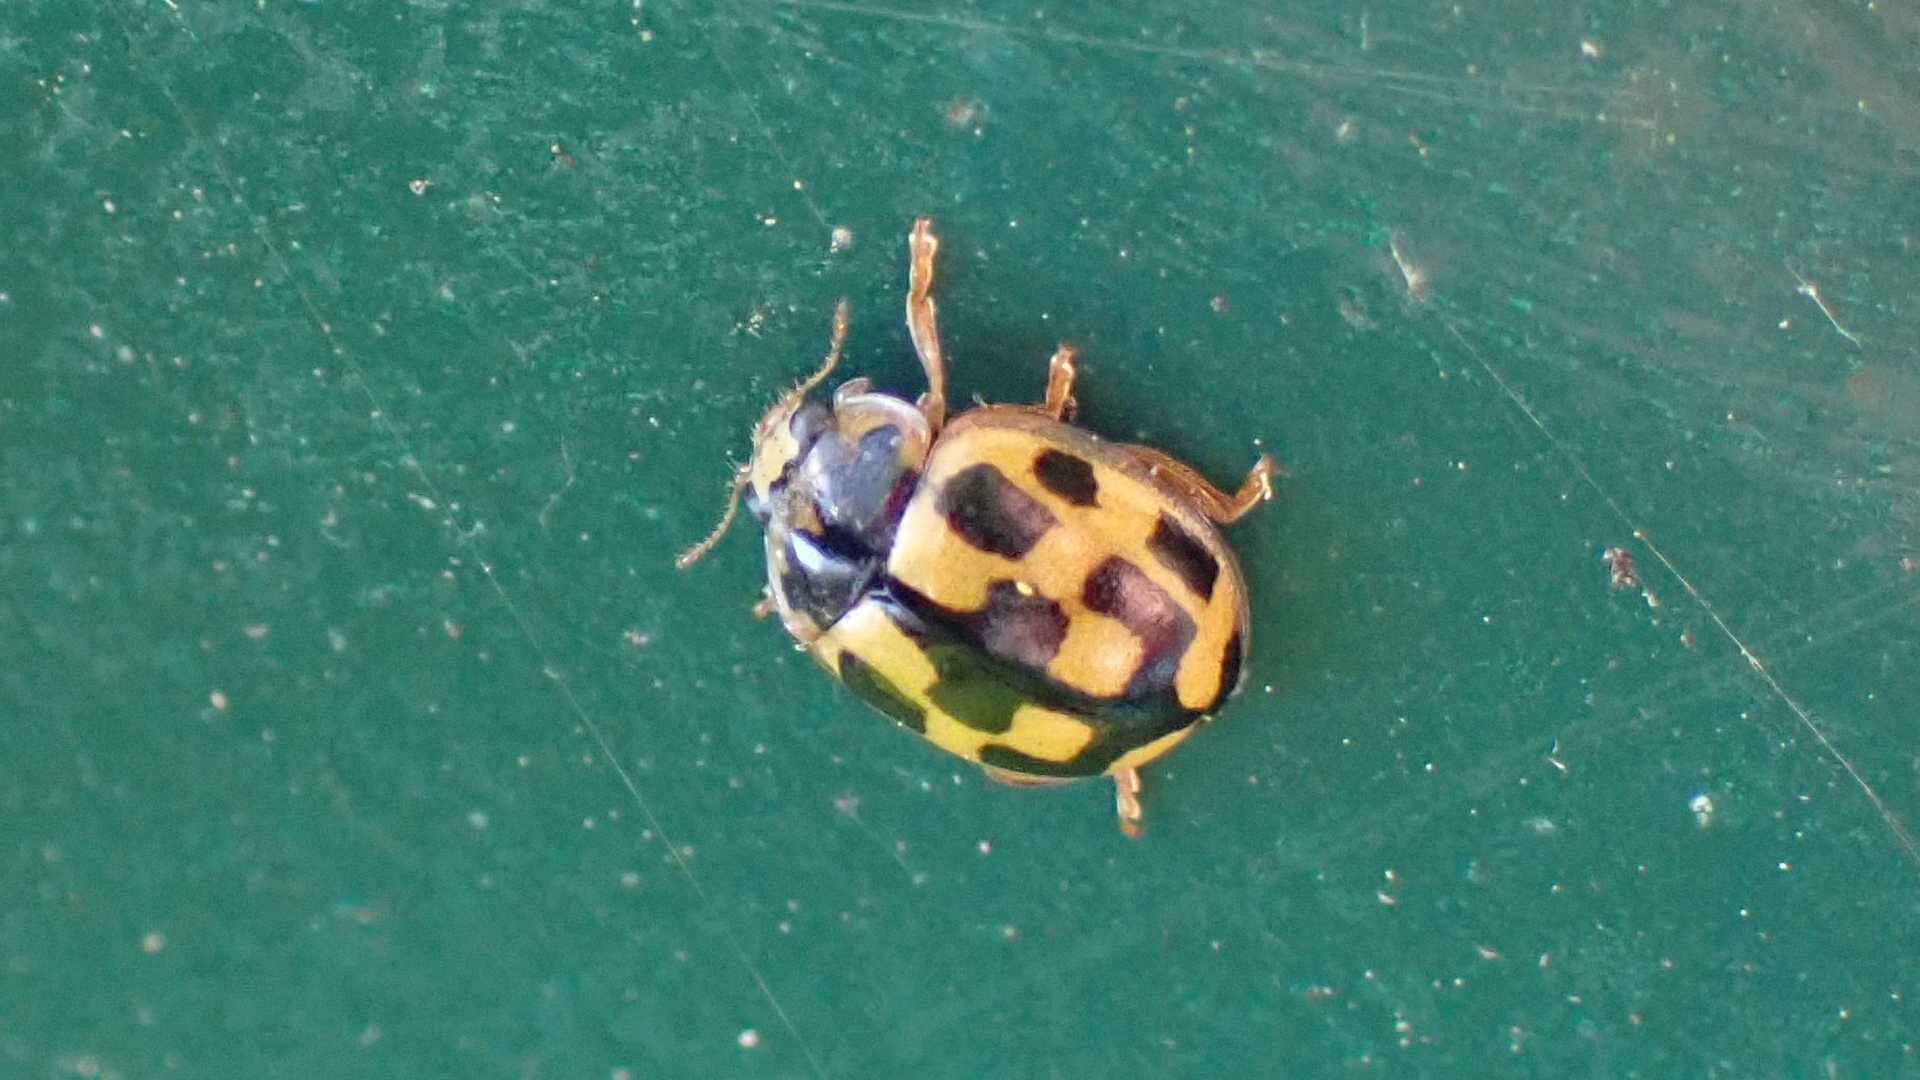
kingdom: Animalia
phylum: Arthropoda
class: Insecta
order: Coleoptera
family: Coccinellidae
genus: Propylaea
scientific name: Propylaea quatuordecimpunctata
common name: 14-spotted ladybird beetle
